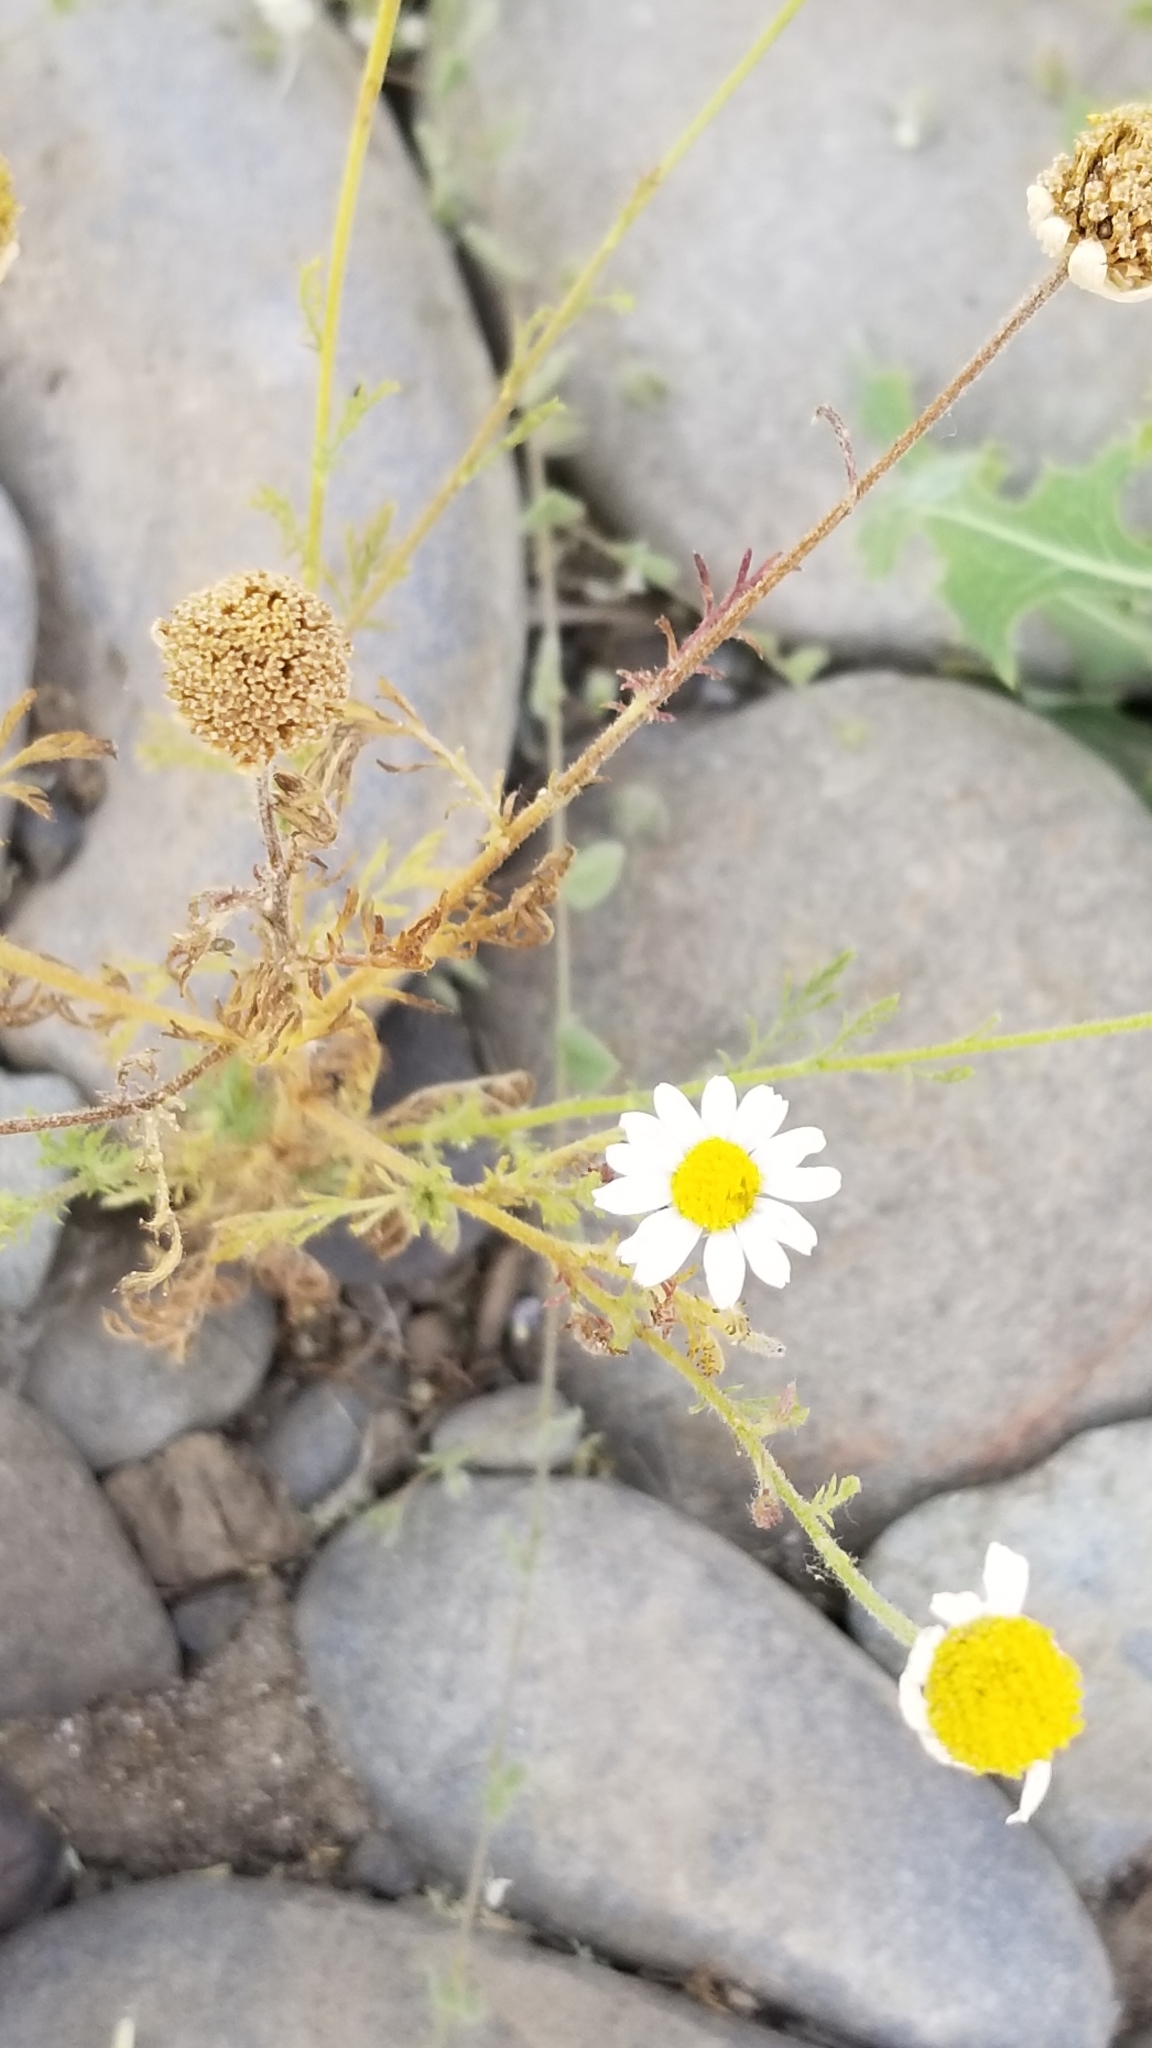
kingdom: Plantae
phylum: Tracheophyta
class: Magnoliopsida
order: Asterales
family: Asteraceae
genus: Anthemis
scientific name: Anthemis cotula
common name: Stinking chamomile
